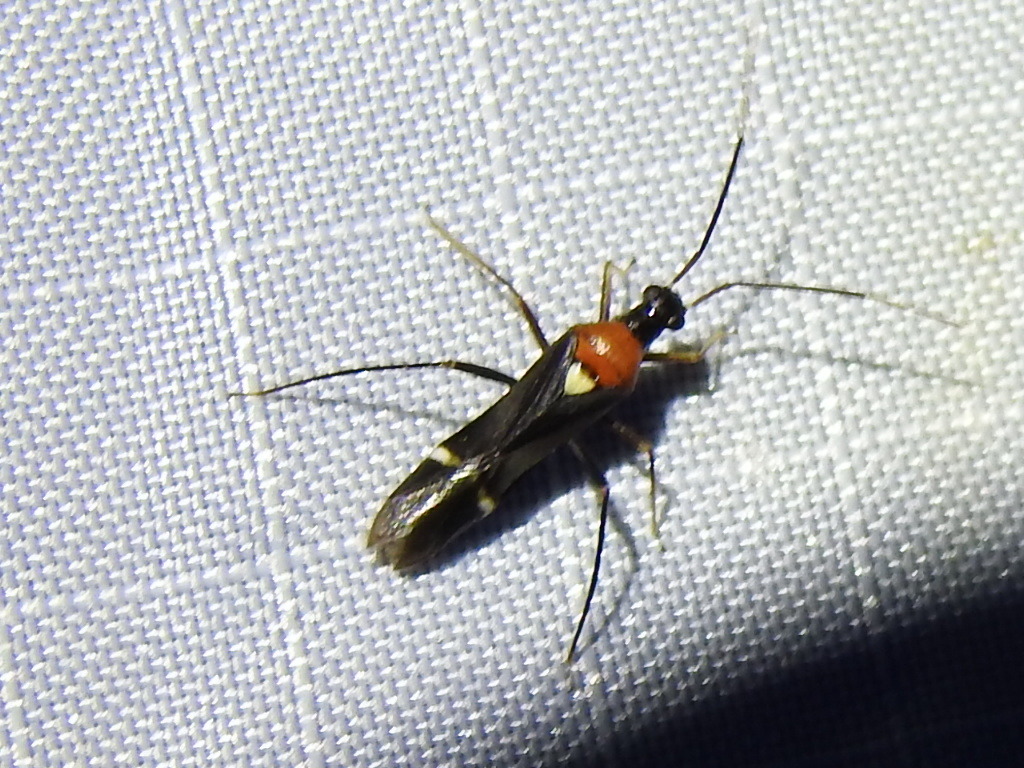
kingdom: Animalia
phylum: Arthropoda
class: Insecta
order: Hemiptera
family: Miridae
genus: Pseudoxenetus
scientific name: Pseudoxenetus regalis
